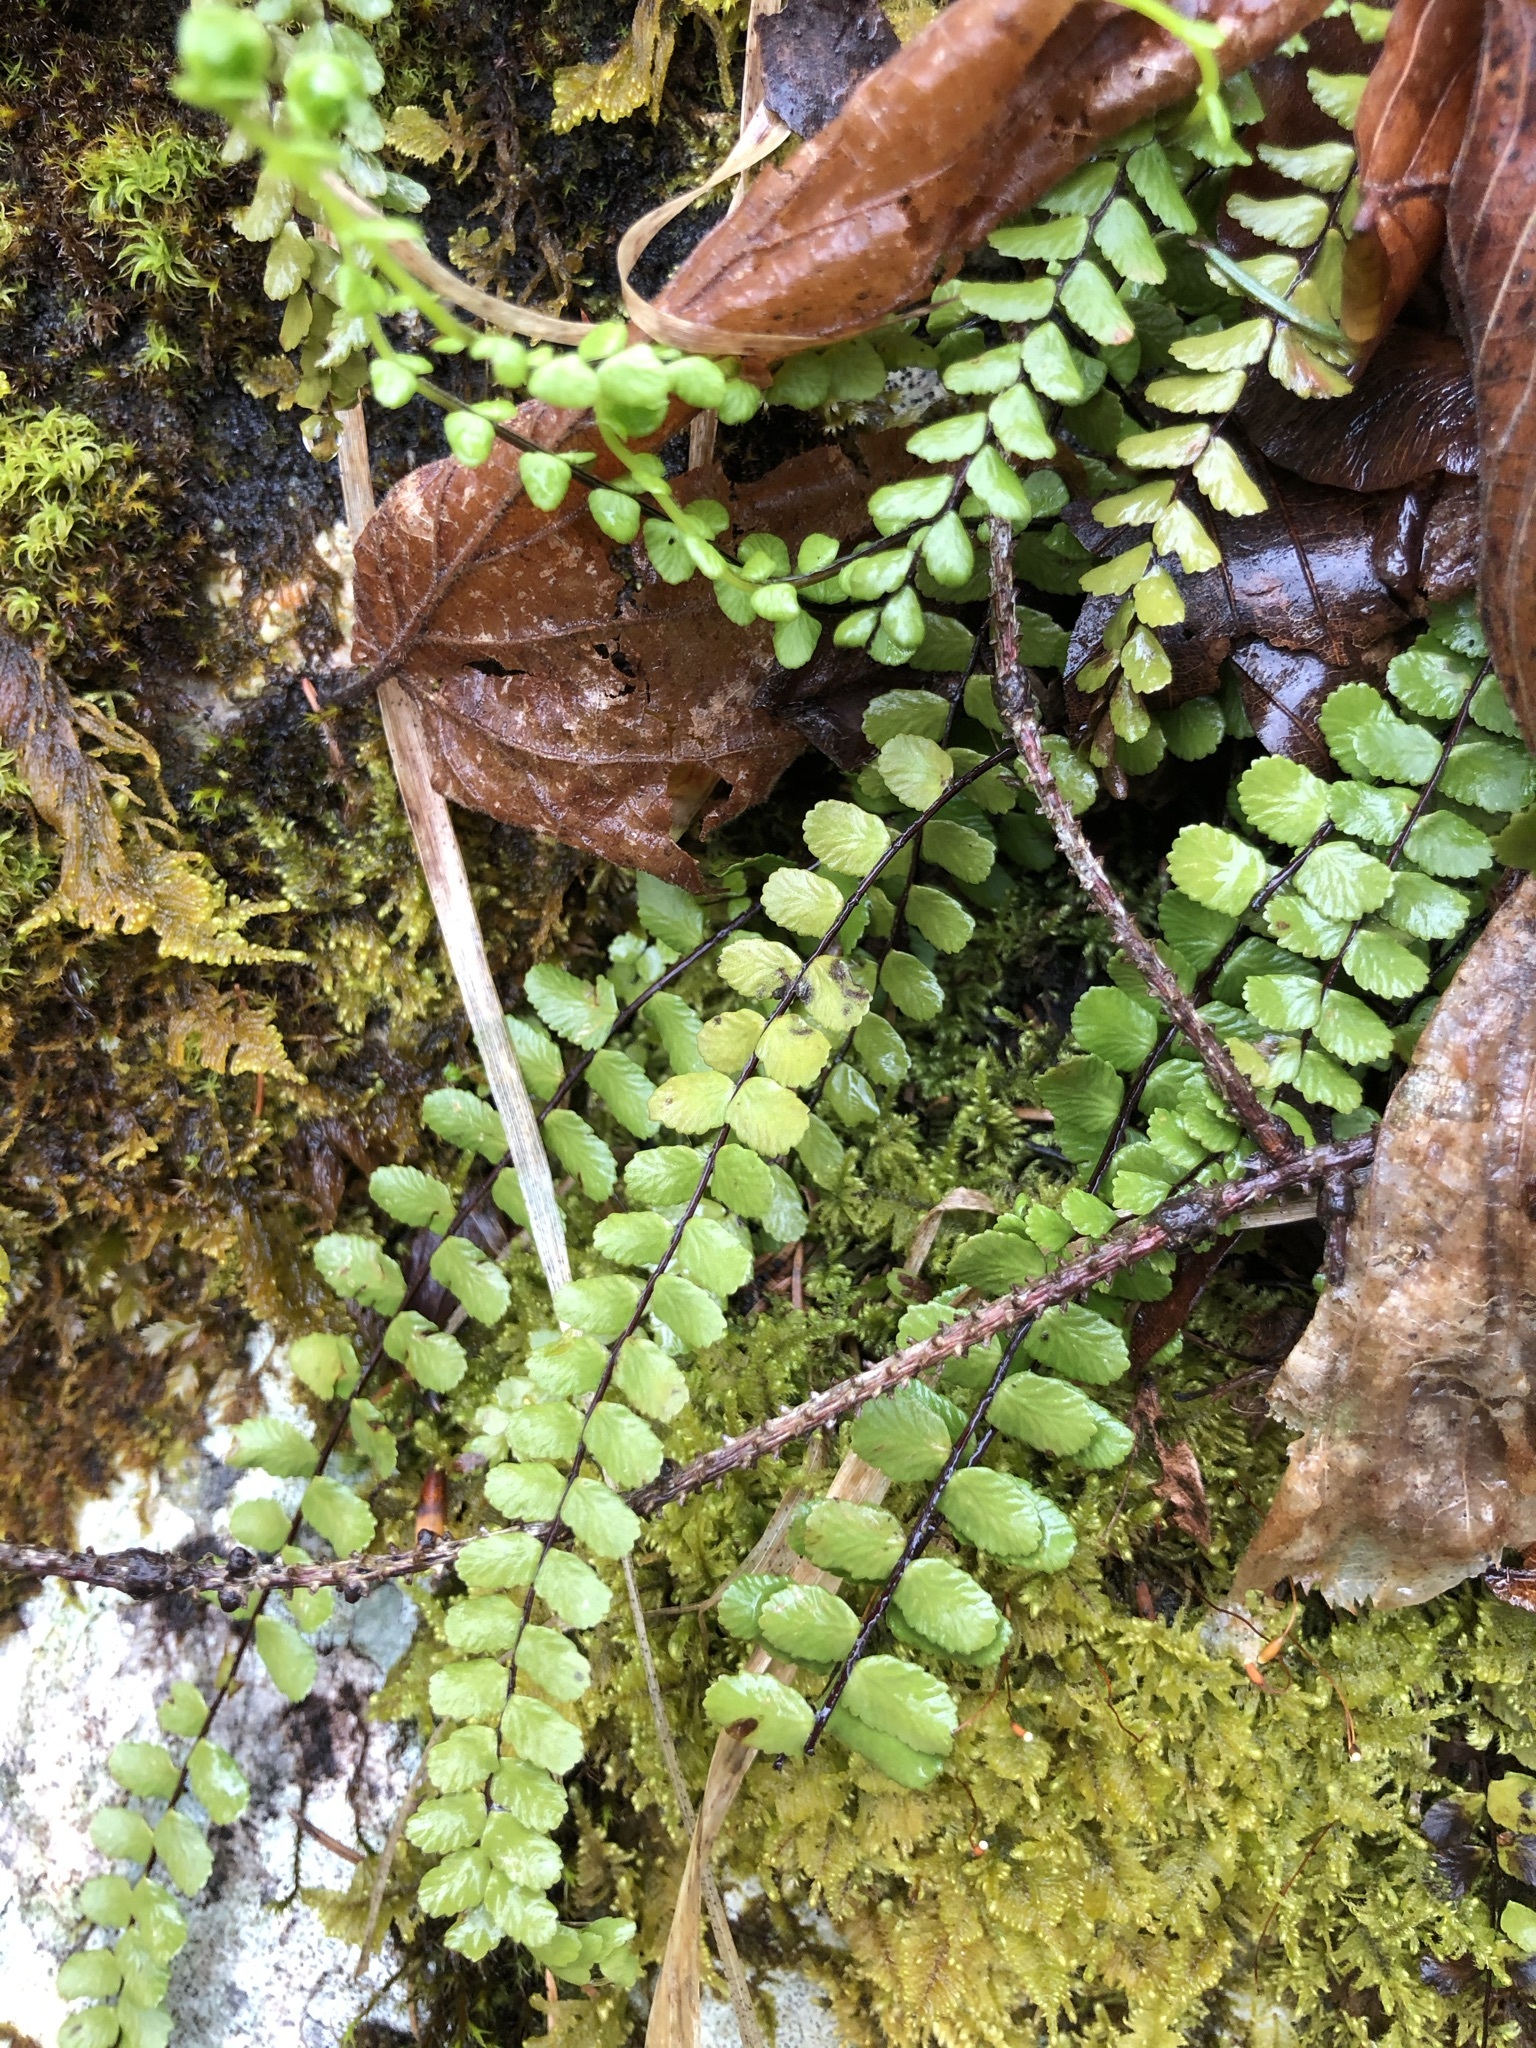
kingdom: Plantae
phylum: Tracheophyta
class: Polypodiopsida
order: Polypodiales
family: Aspleniaceae
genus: Asplenium
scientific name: Asplenium trichomanes
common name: Maidenhair spleenwort
